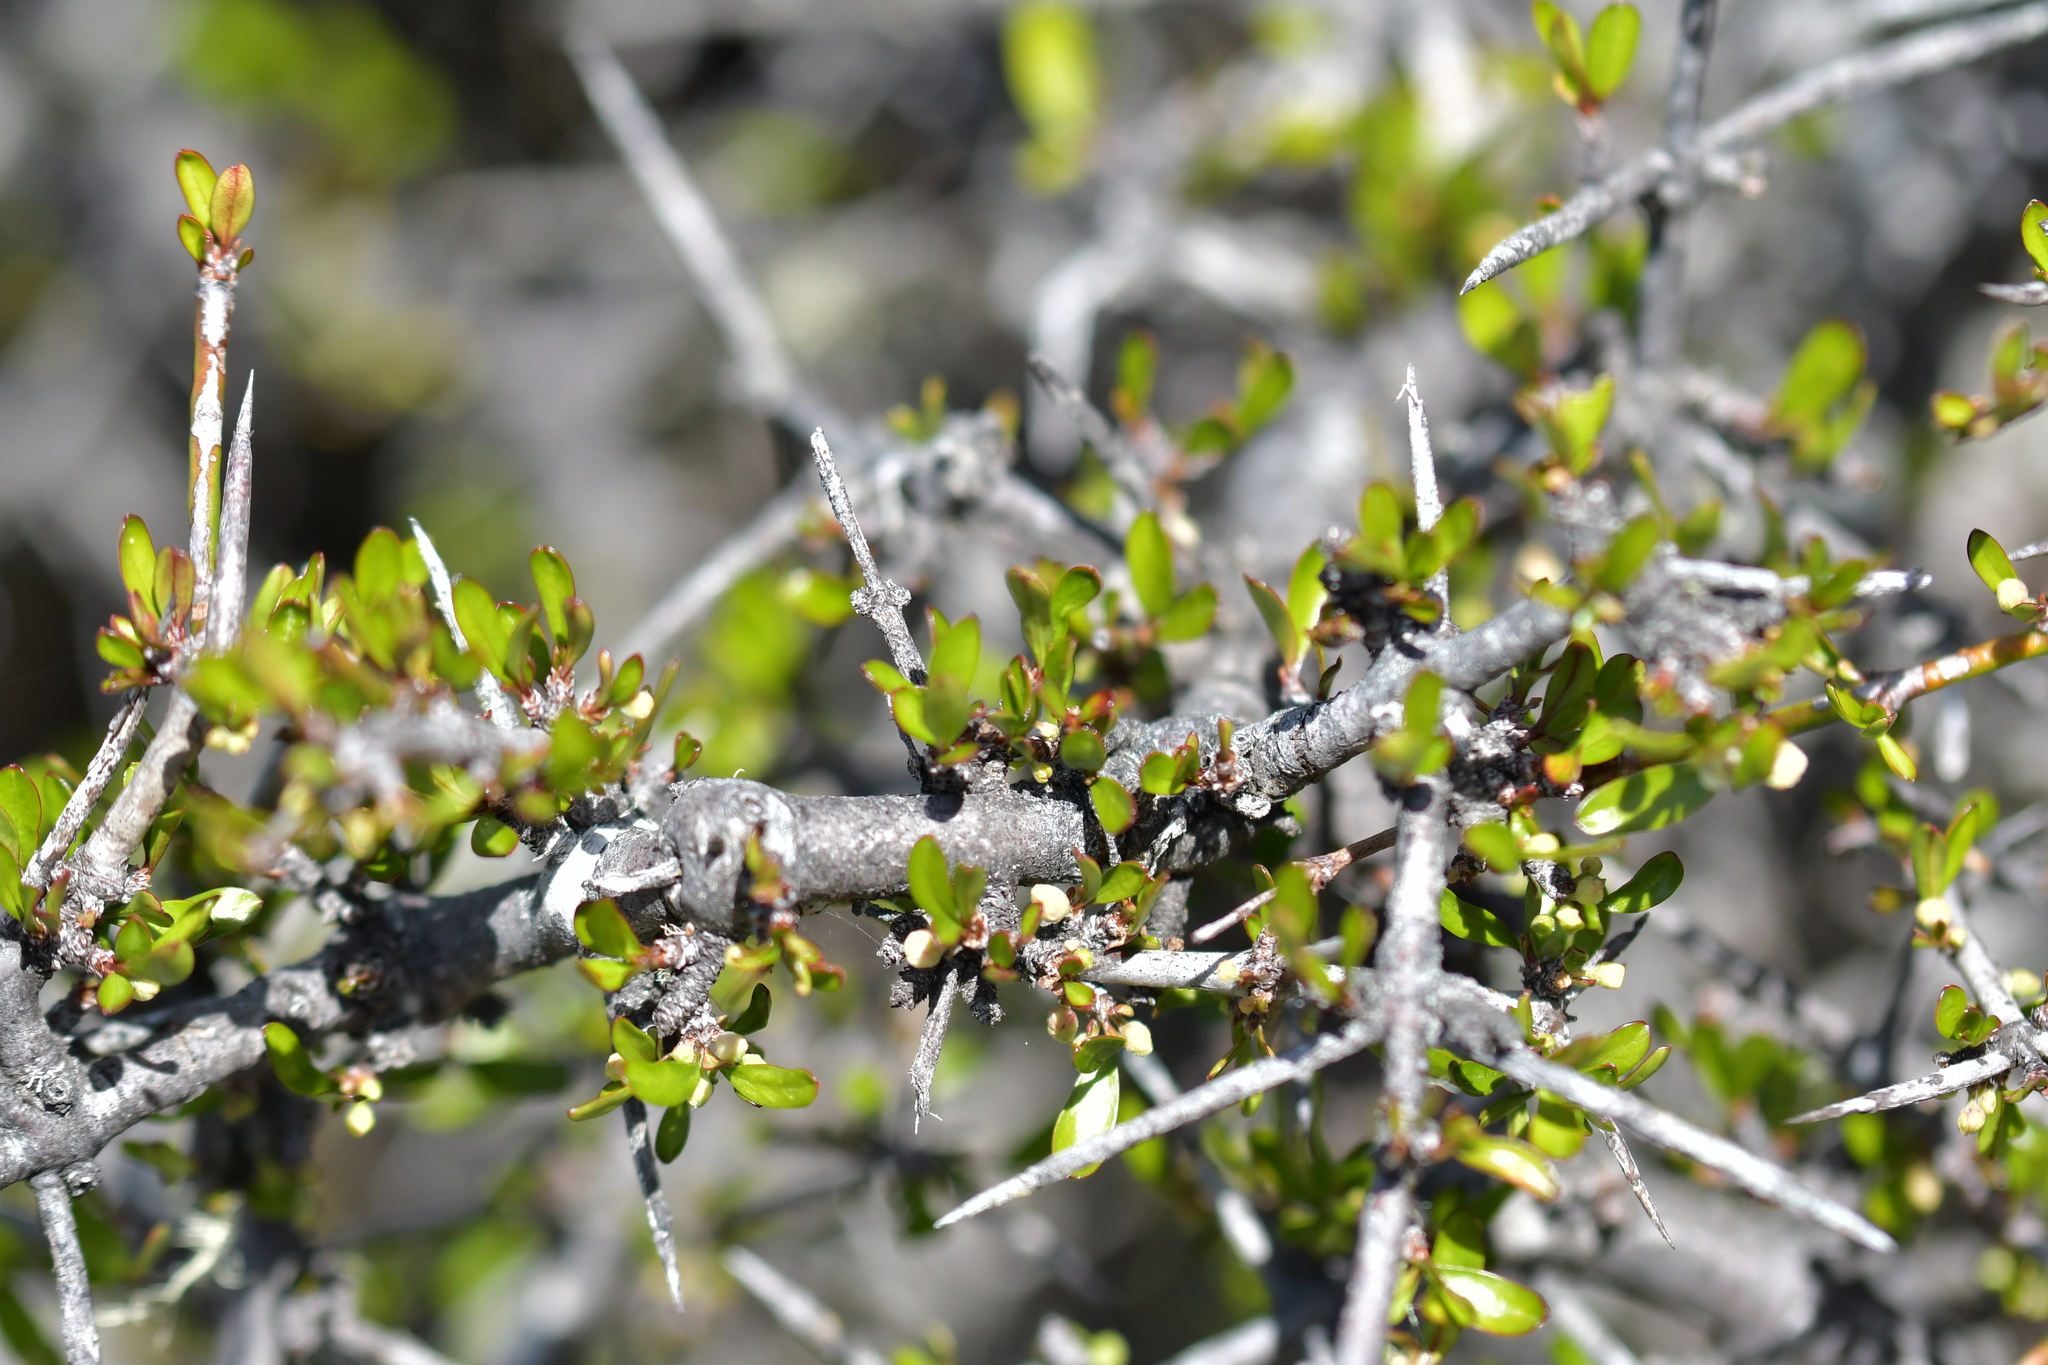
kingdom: Plantae
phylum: Tracheophyta
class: Magnoliopsida
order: Rosales
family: Rhamnaceae
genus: Discaria
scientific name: Discaria toumatou
